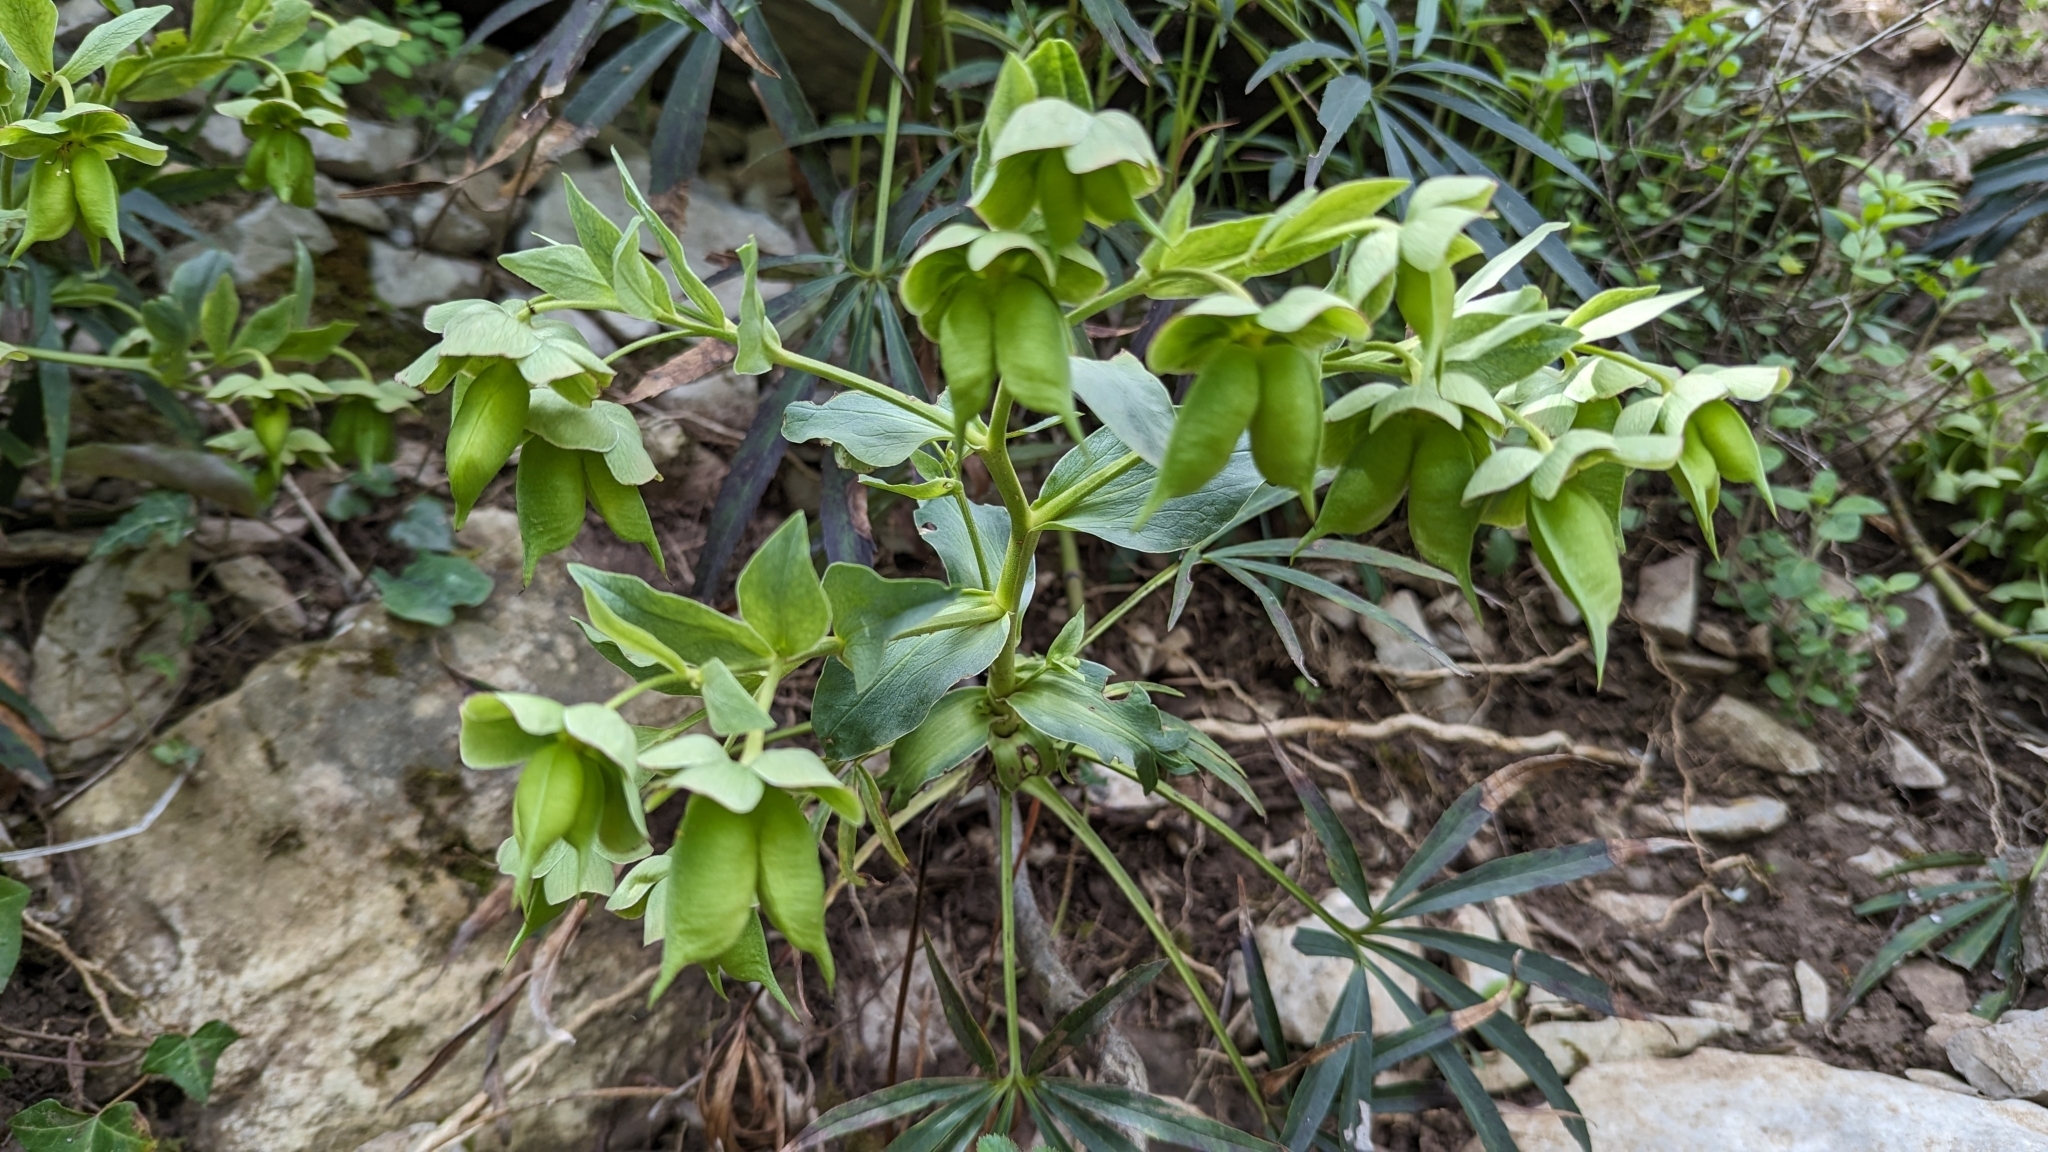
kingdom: Plantae
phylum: Tracheophyta
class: Magnoliopsida
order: Ranunculales
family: Ranunculaceae
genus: Helleborus
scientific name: Helleborus foetidus
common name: Stinking hellebore
